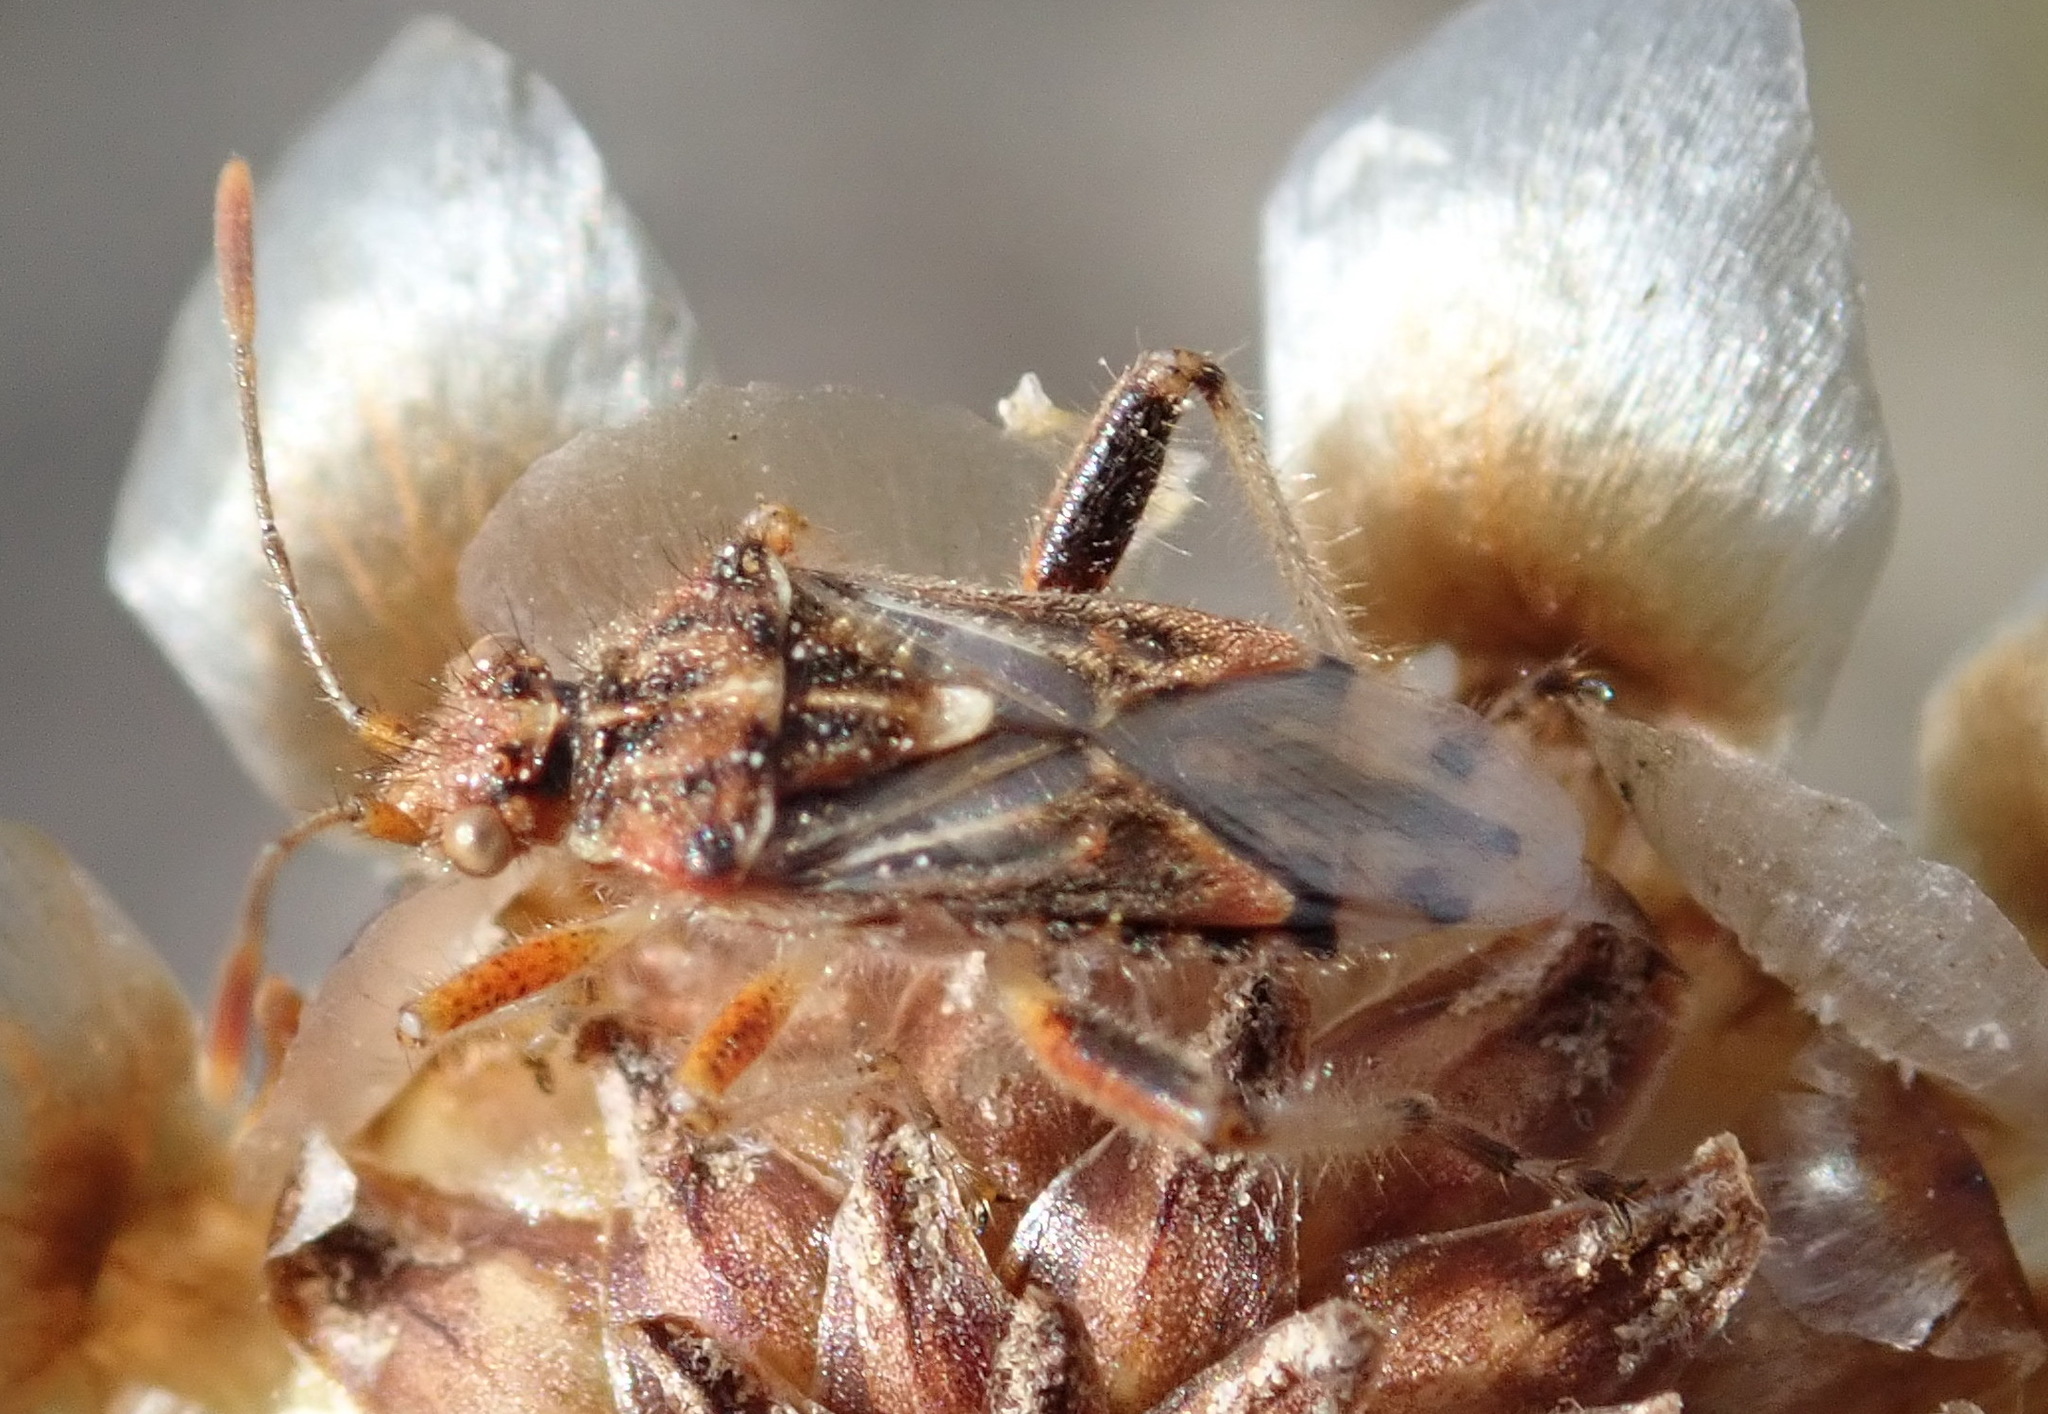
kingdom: Animalia
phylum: Arthropoda
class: Insecta
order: Hemiptera
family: Rhopalidae
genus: Stictopleurus
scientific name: Stictopleurus scutellaris
